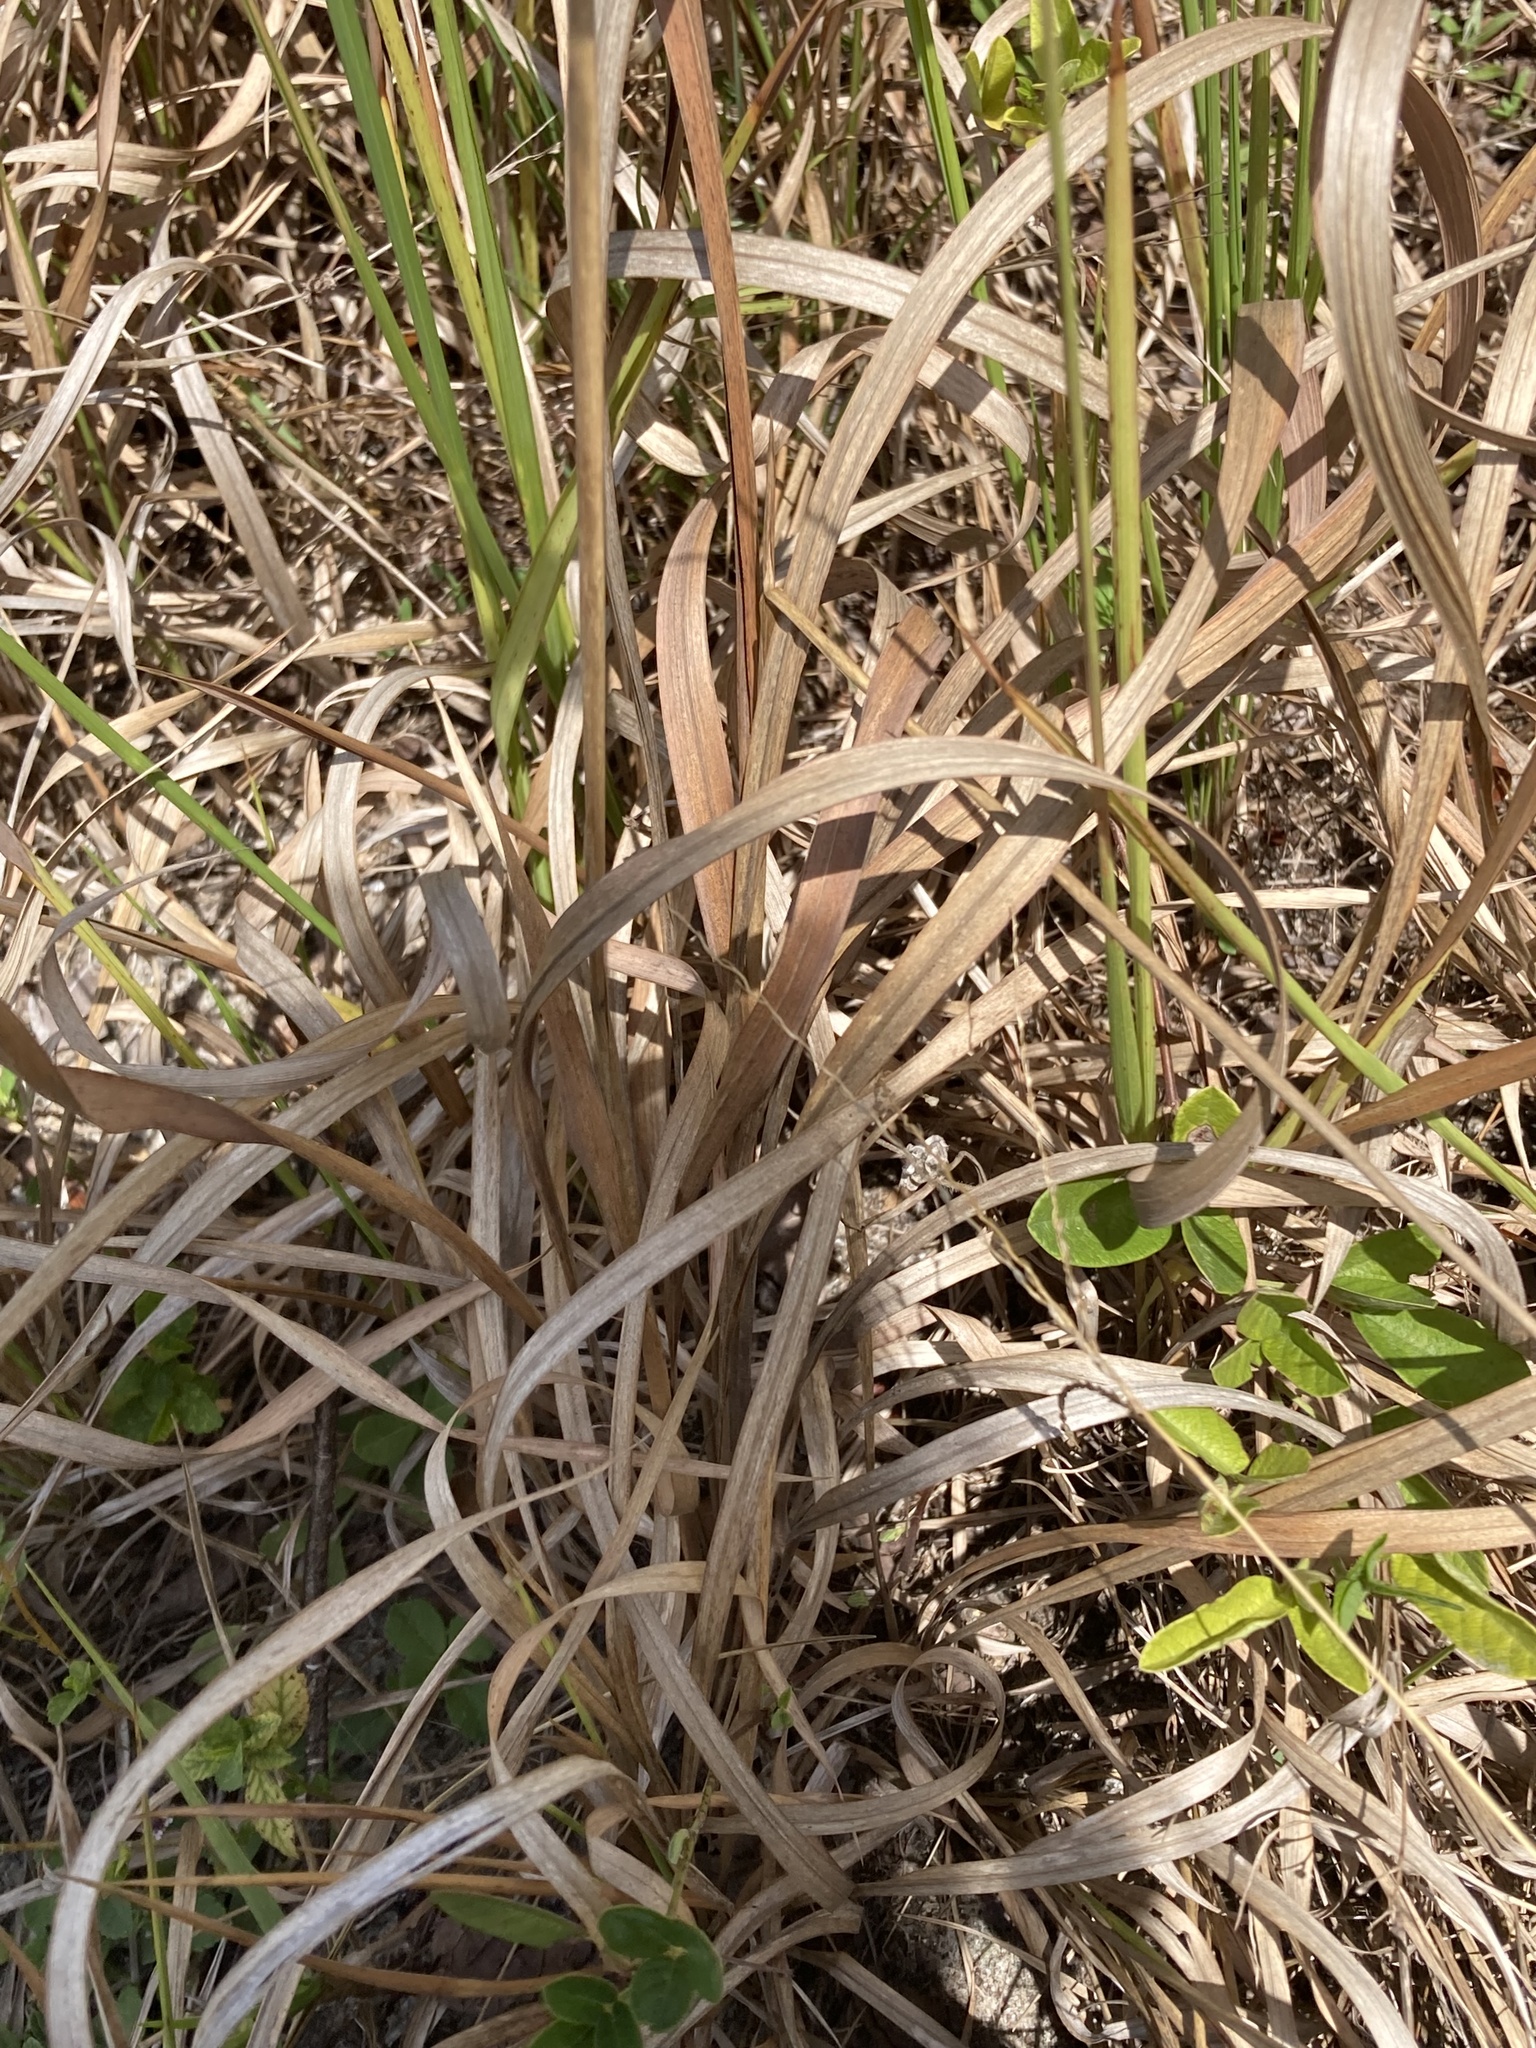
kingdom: Plantae
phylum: Tracheophyta
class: Liliopsida
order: Poales
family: Poaceae
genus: Imperata
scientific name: Imperata cylindrica
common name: Cogongrass
